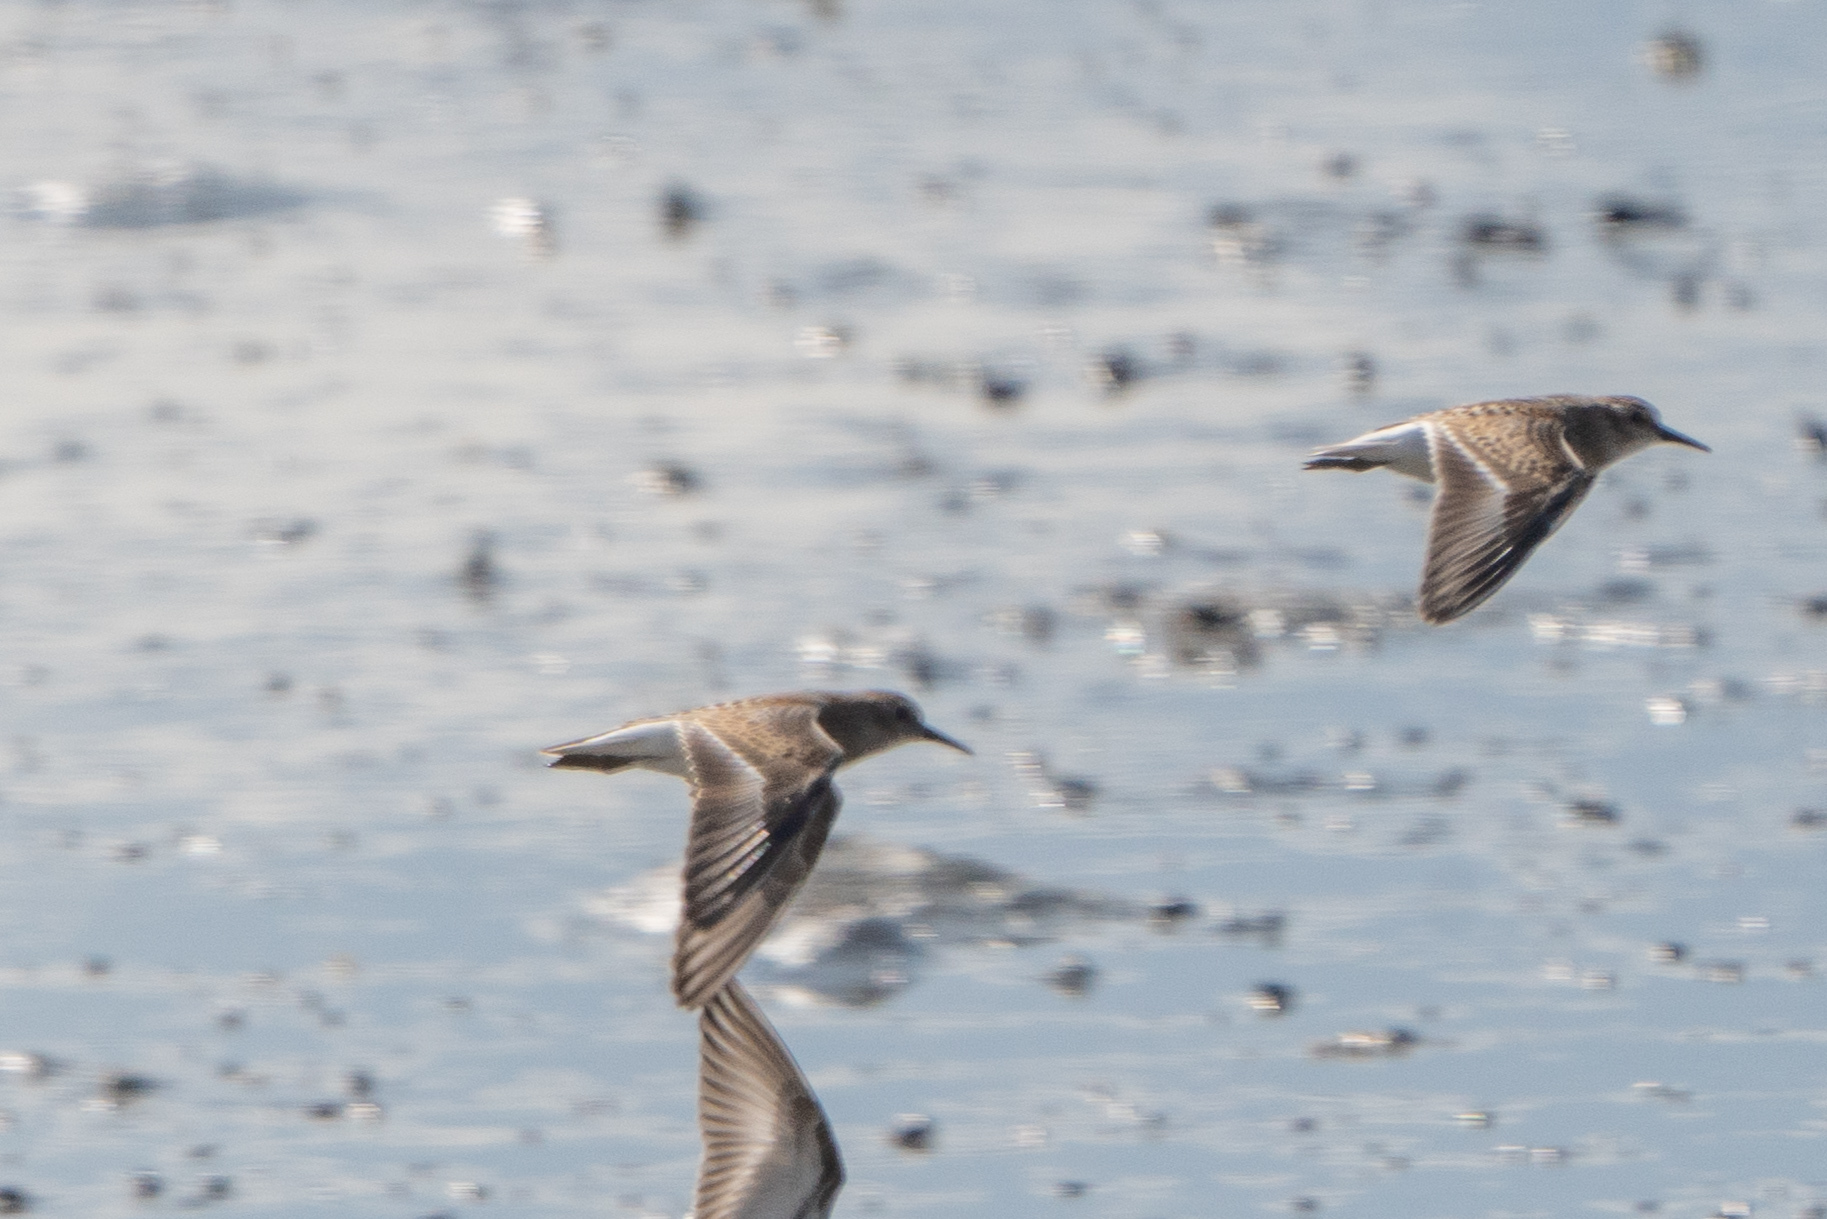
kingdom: Animalia
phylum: Chordata
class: Aves
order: Charadriiformes
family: Scolopacidae
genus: Calidris
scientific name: Calidris mauri
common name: Western sandpiper
